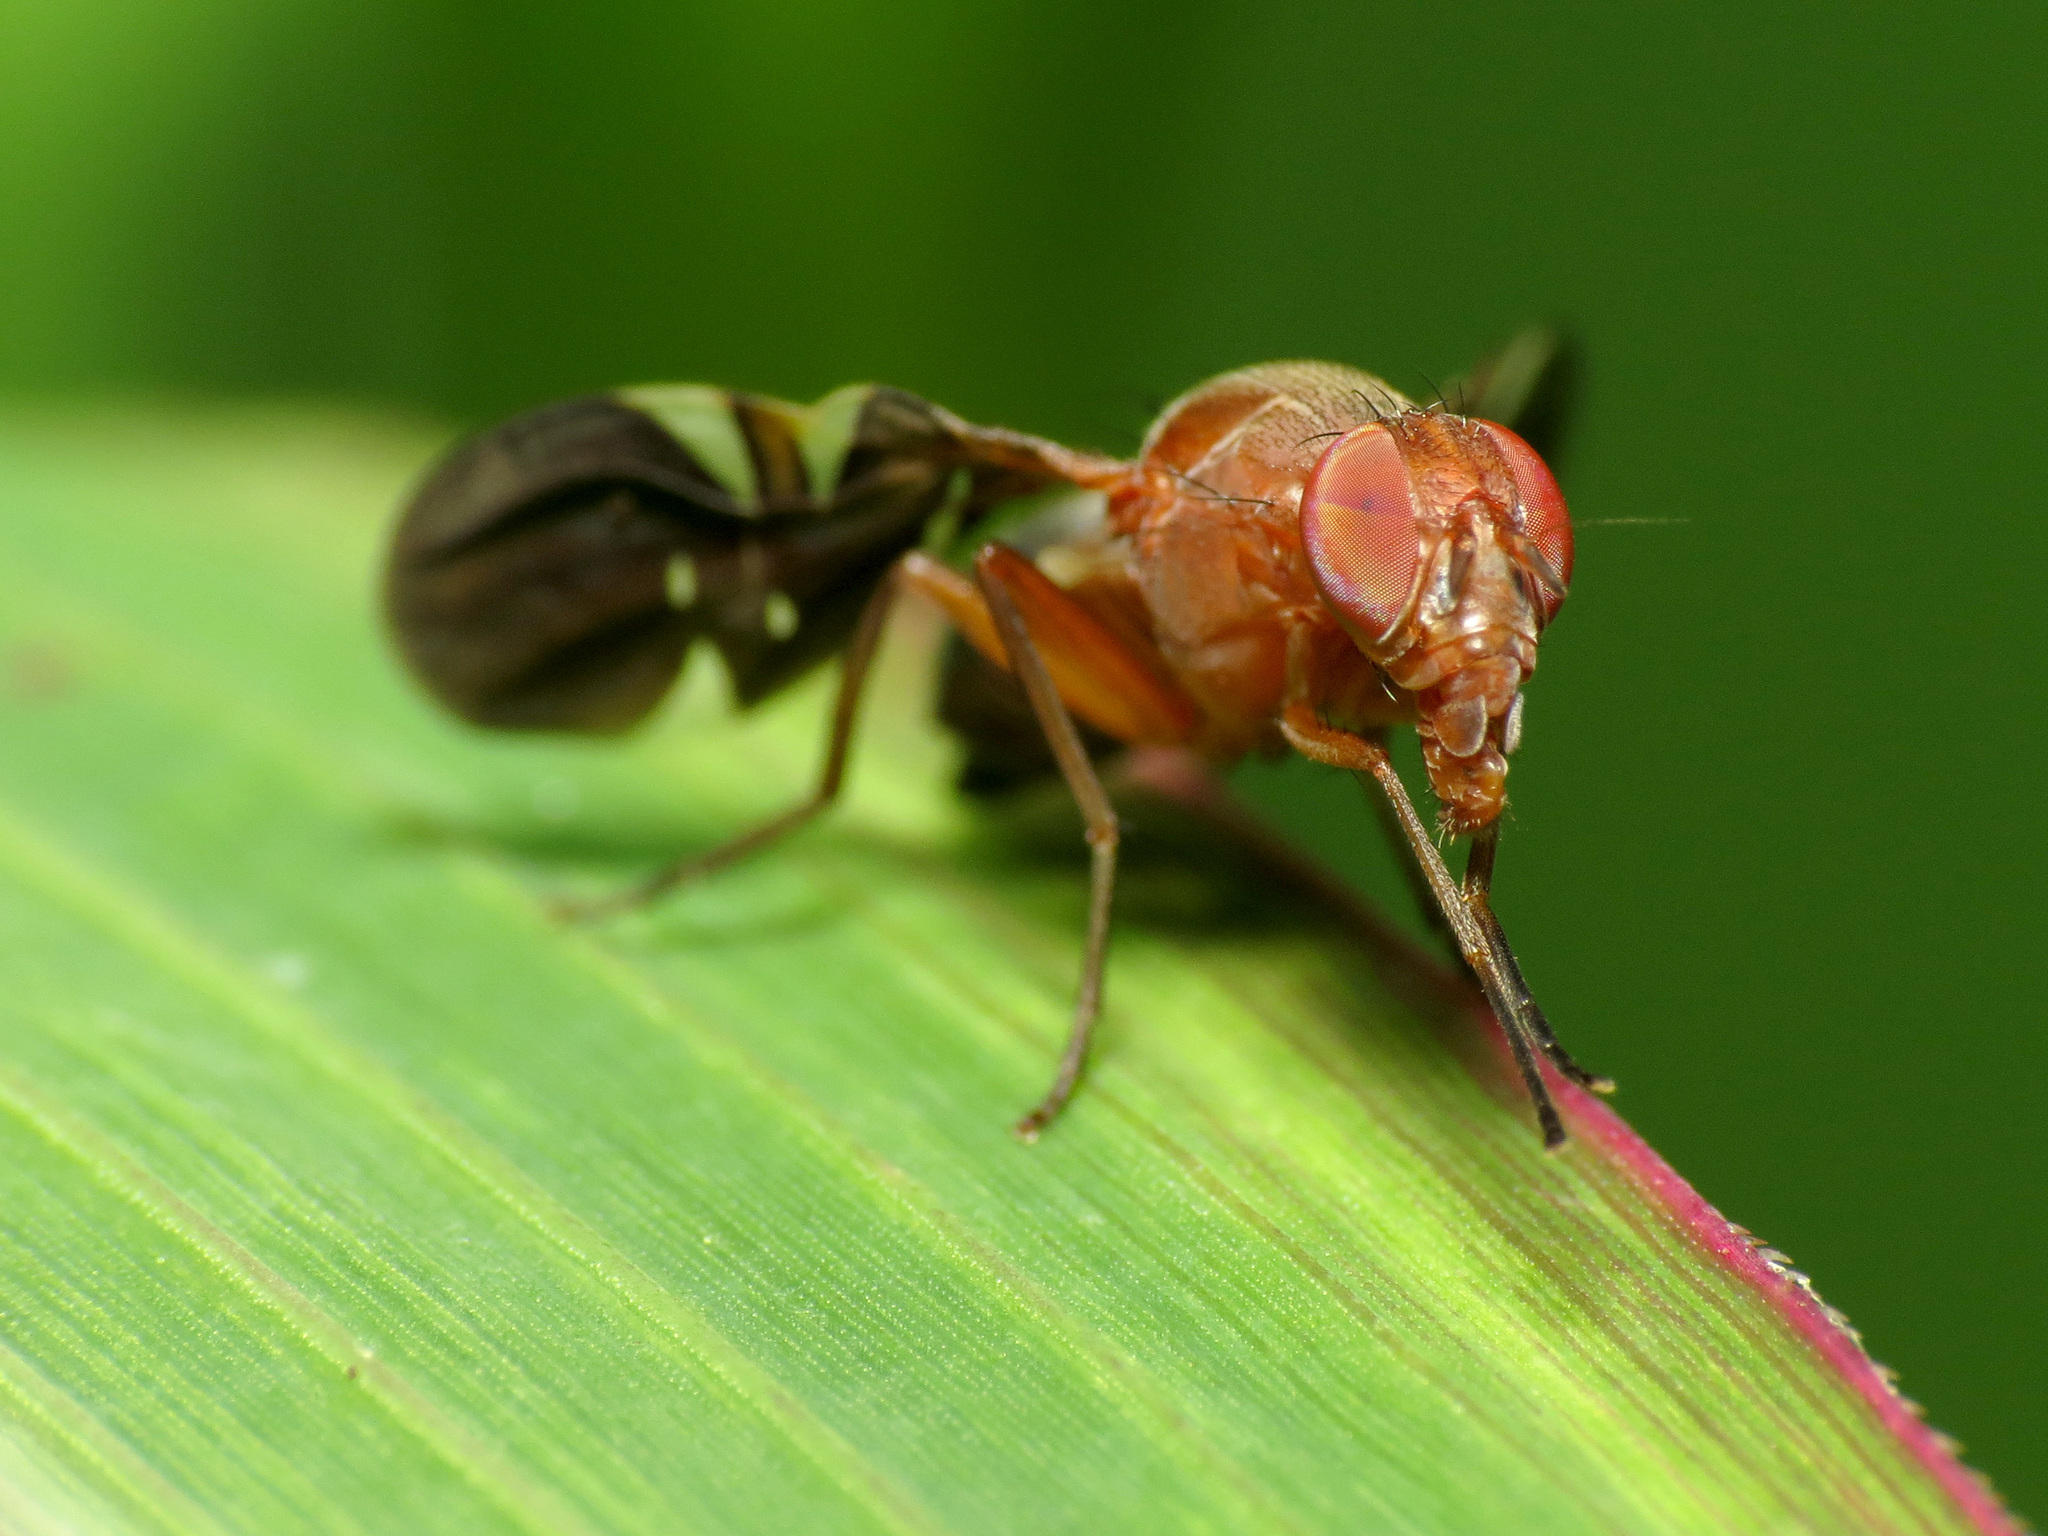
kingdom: Animalia
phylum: Arthropoda
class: Insecta
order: Diptera
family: Ulidiidae
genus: Delphinia
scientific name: Delphinia picta
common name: Common picture-winged fly
